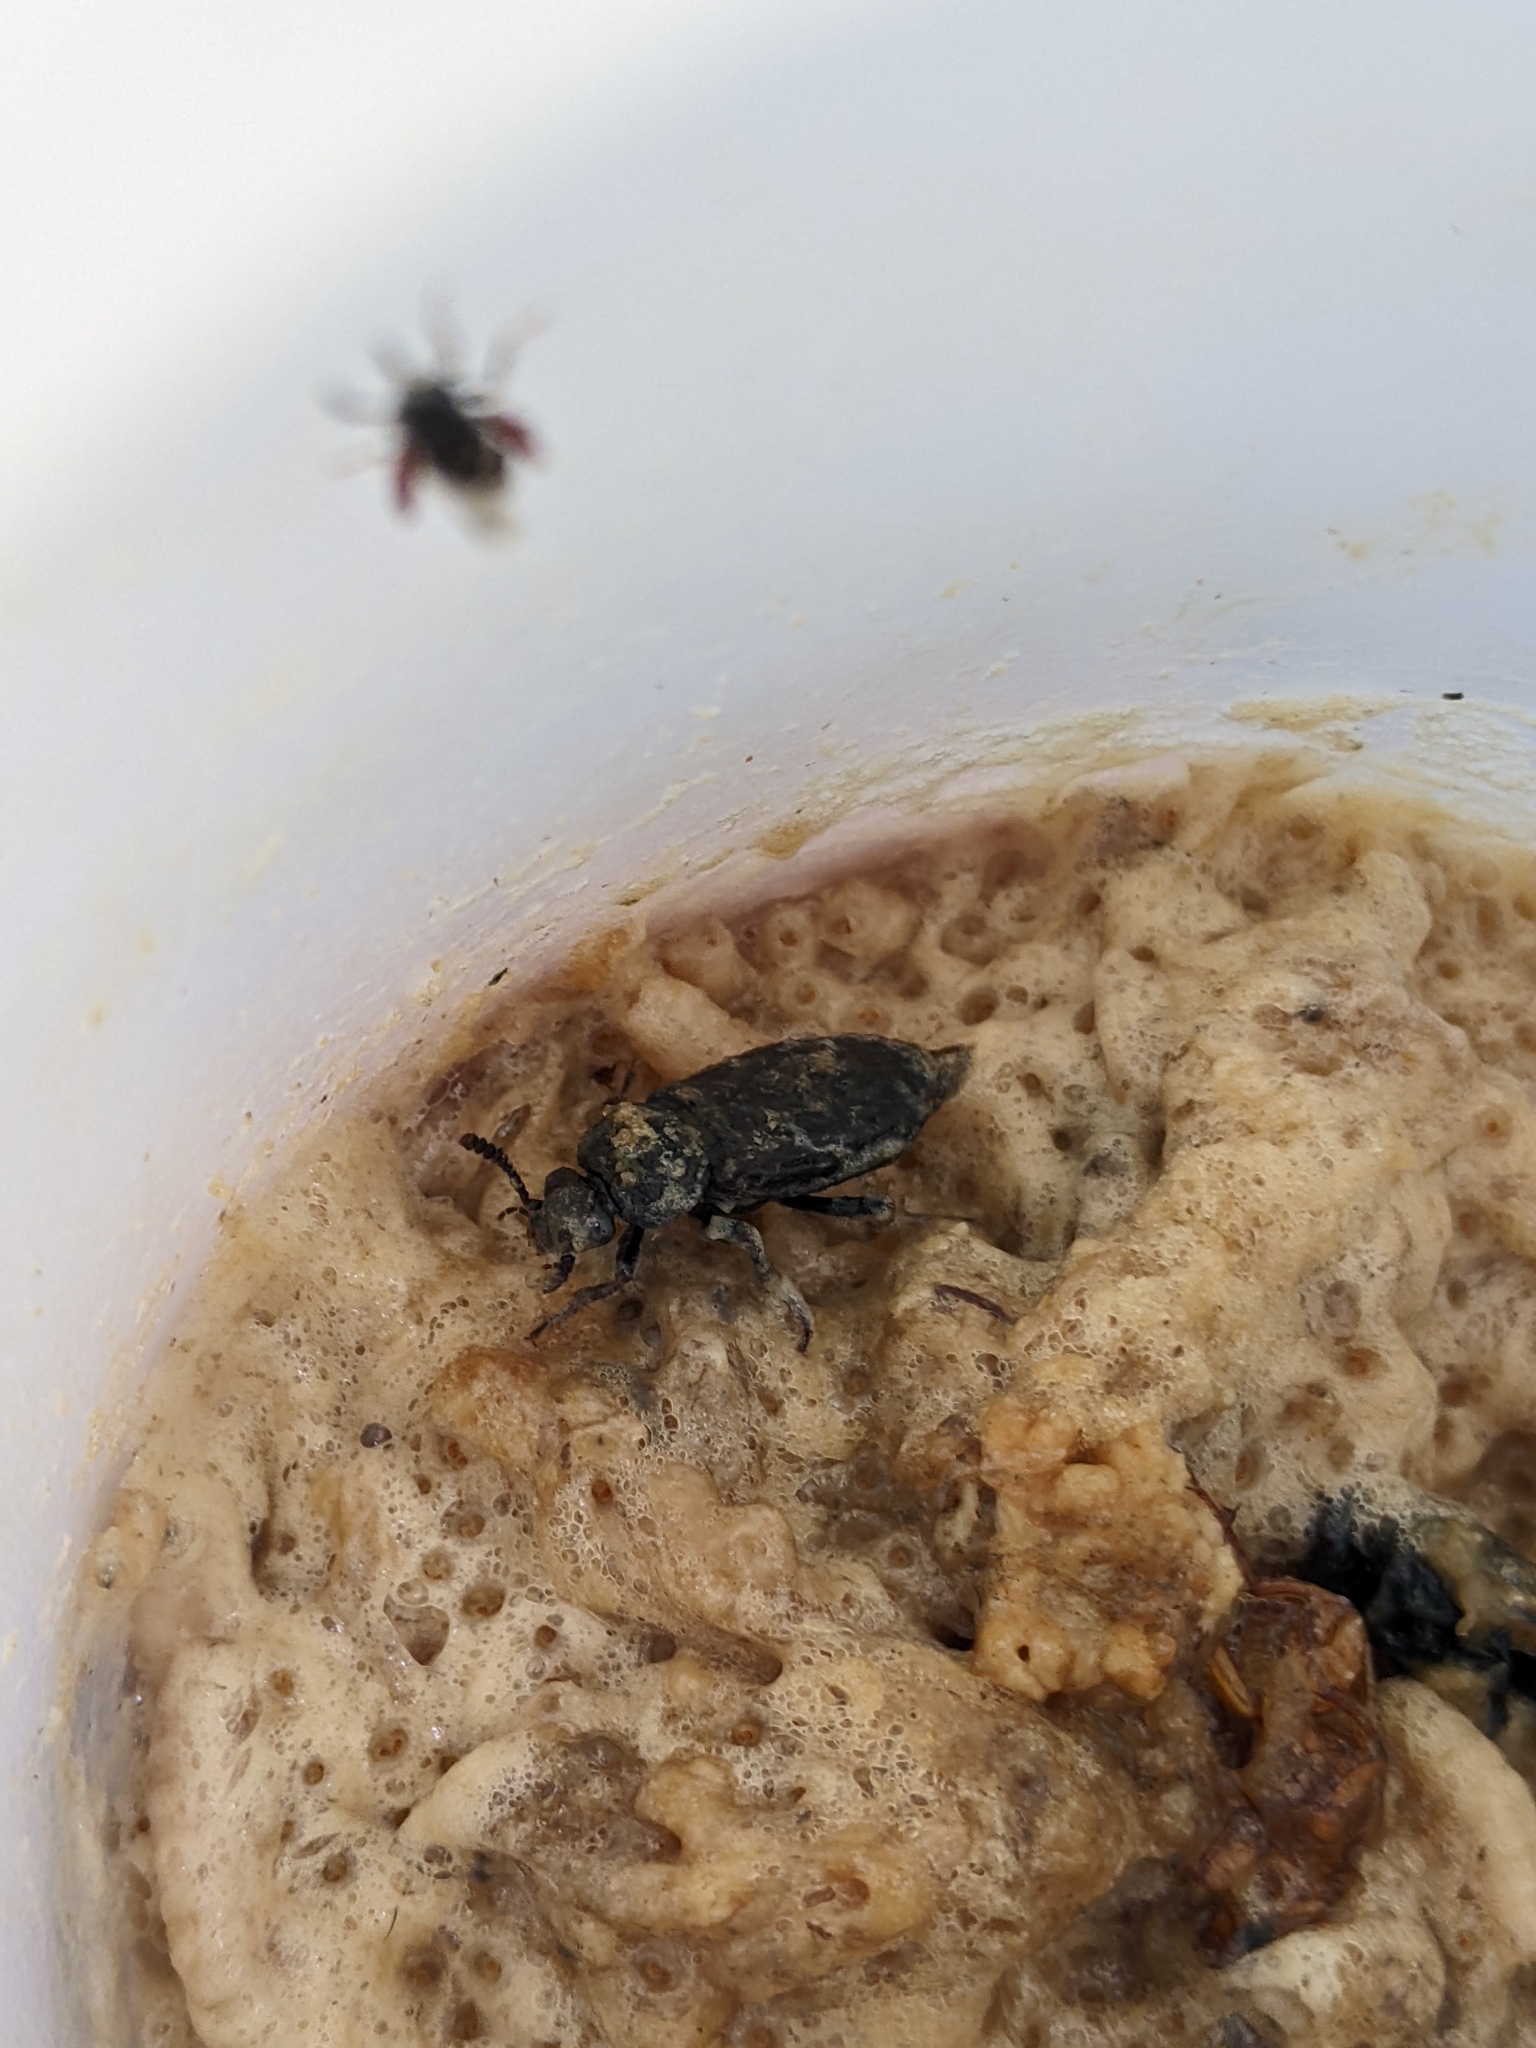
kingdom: Animalia
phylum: Arthropoda
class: Insecta
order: Coleoptera
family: Staphylinidae
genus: Necrodes
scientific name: Necrodes nigricornis
